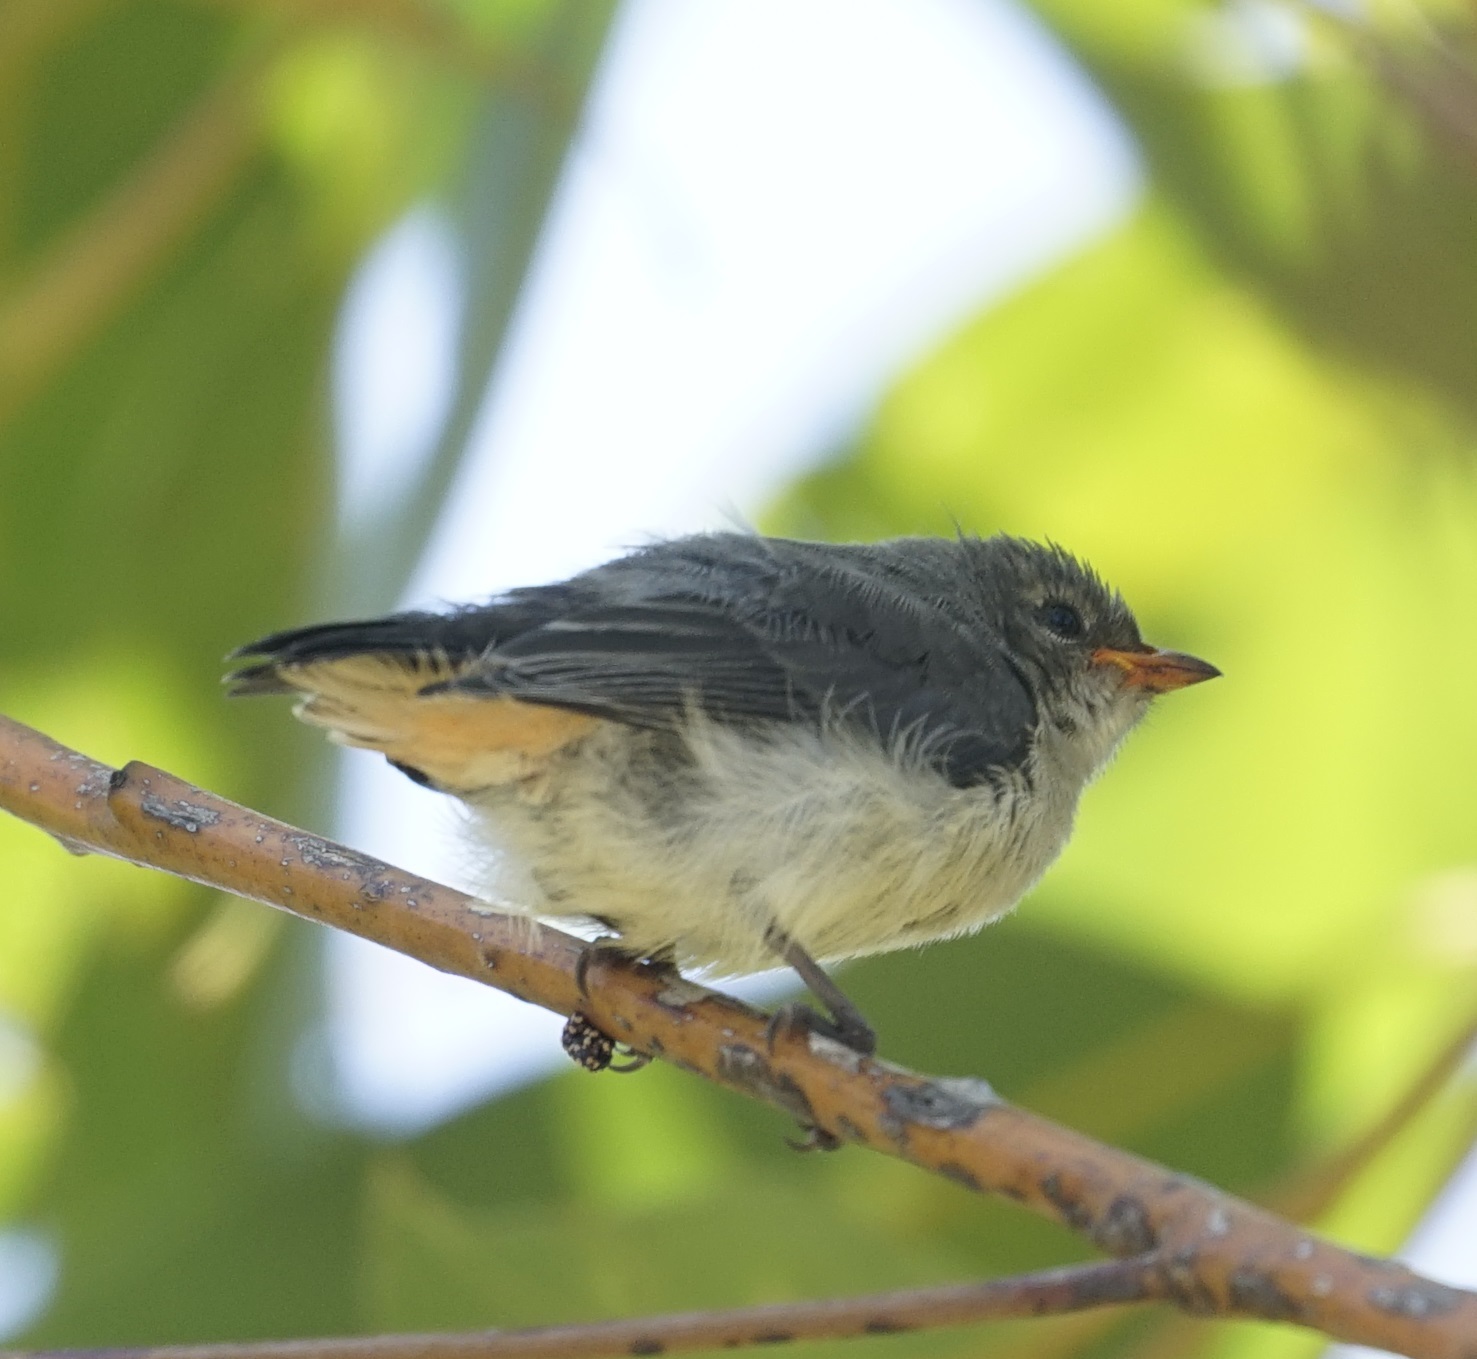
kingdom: Animalia
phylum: Chordata
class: Aves
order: Passeriformes
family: Dicaeidae
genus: Dicaeum
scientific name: Dicaeum hirundinaceum
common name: Mistletoebird
